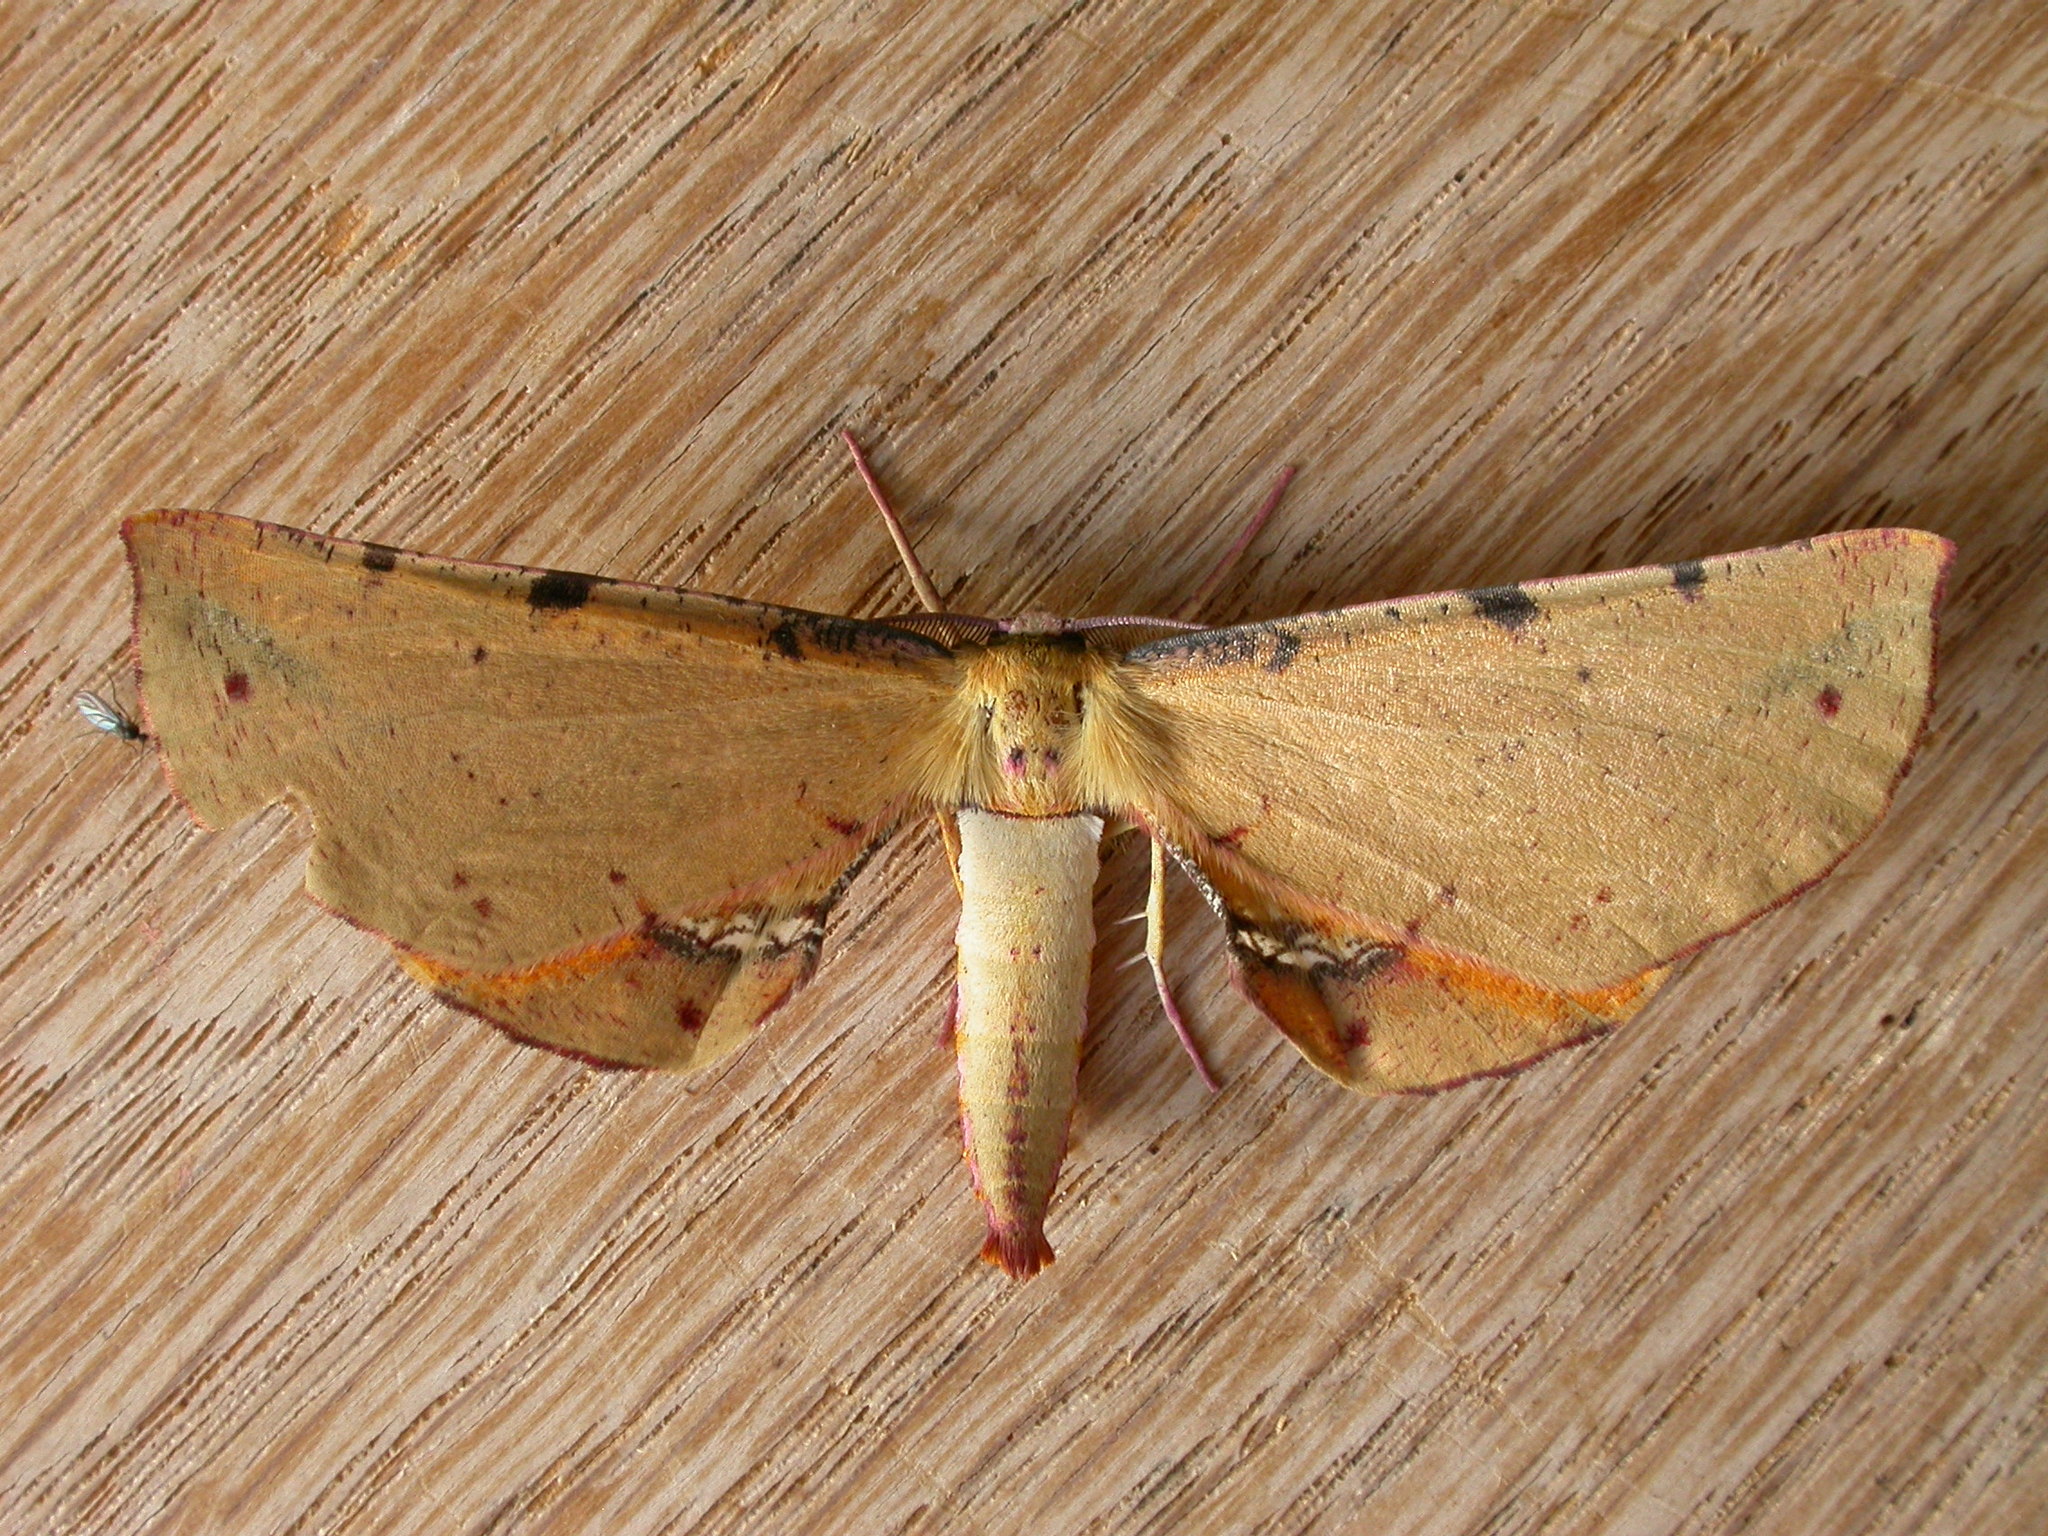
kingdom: Animalia
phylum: Arthropoda
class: Insecta
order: Lepidoptera
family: Geometridae
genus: Parepisparis
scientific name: Parepisparis lutosaria
